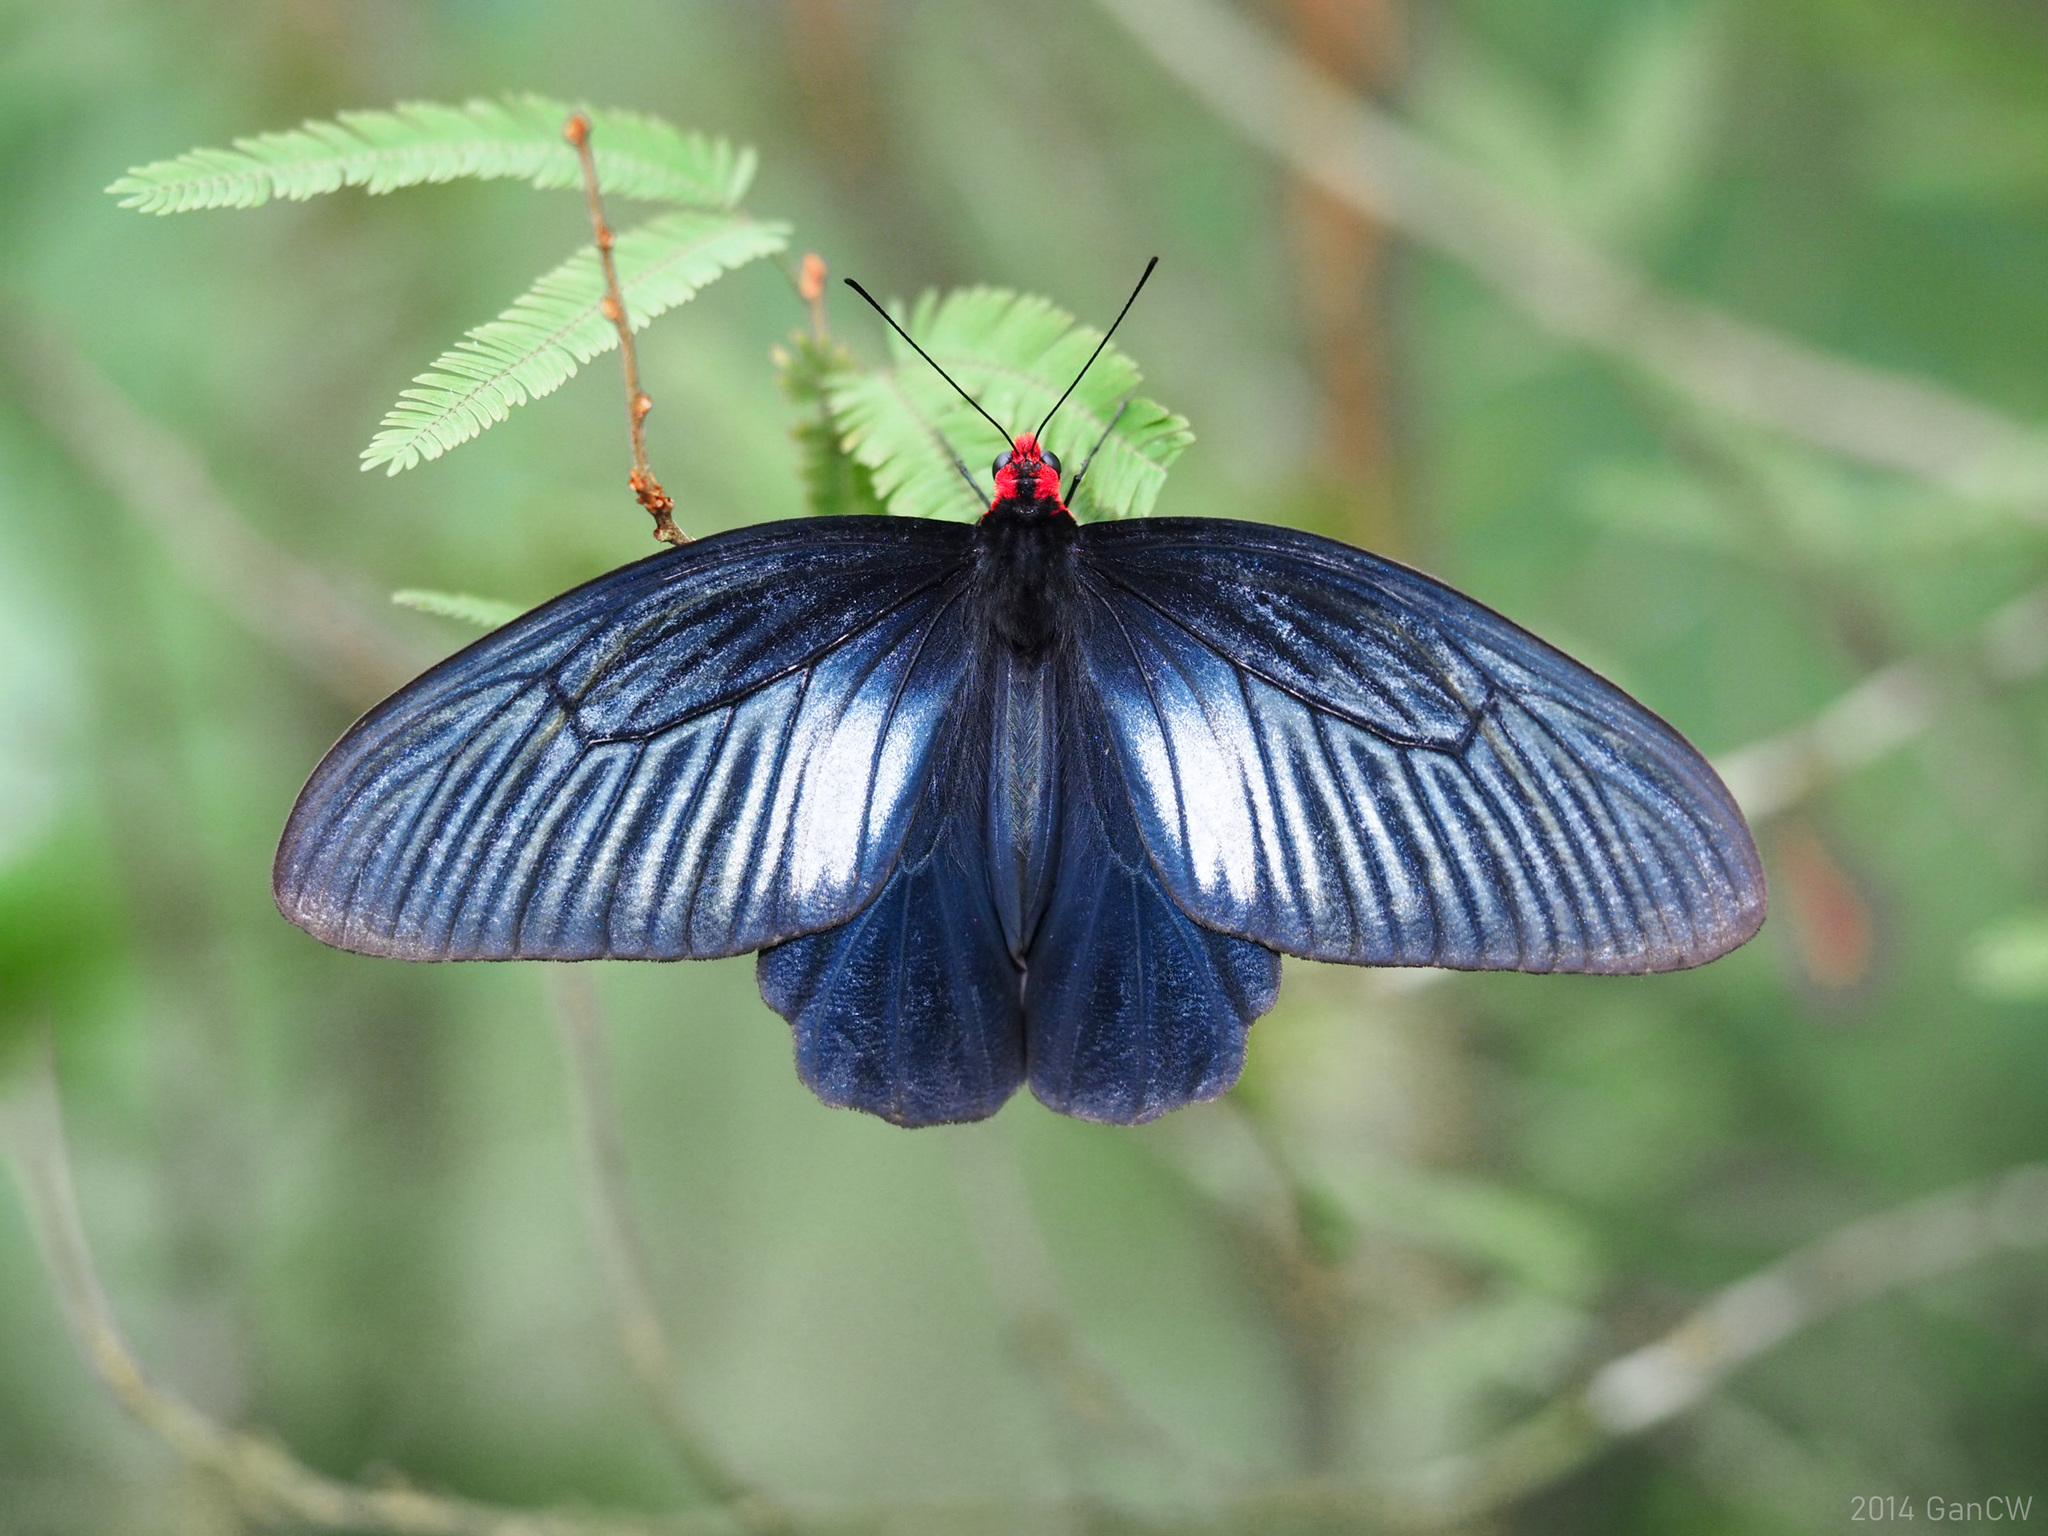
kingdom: Animalia
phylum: Arthropoda
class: Insecta
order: Lepidoptera
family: Papilionidae
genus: Atrophaneura
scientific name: Atrophaneura varuna
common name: Common batwing
